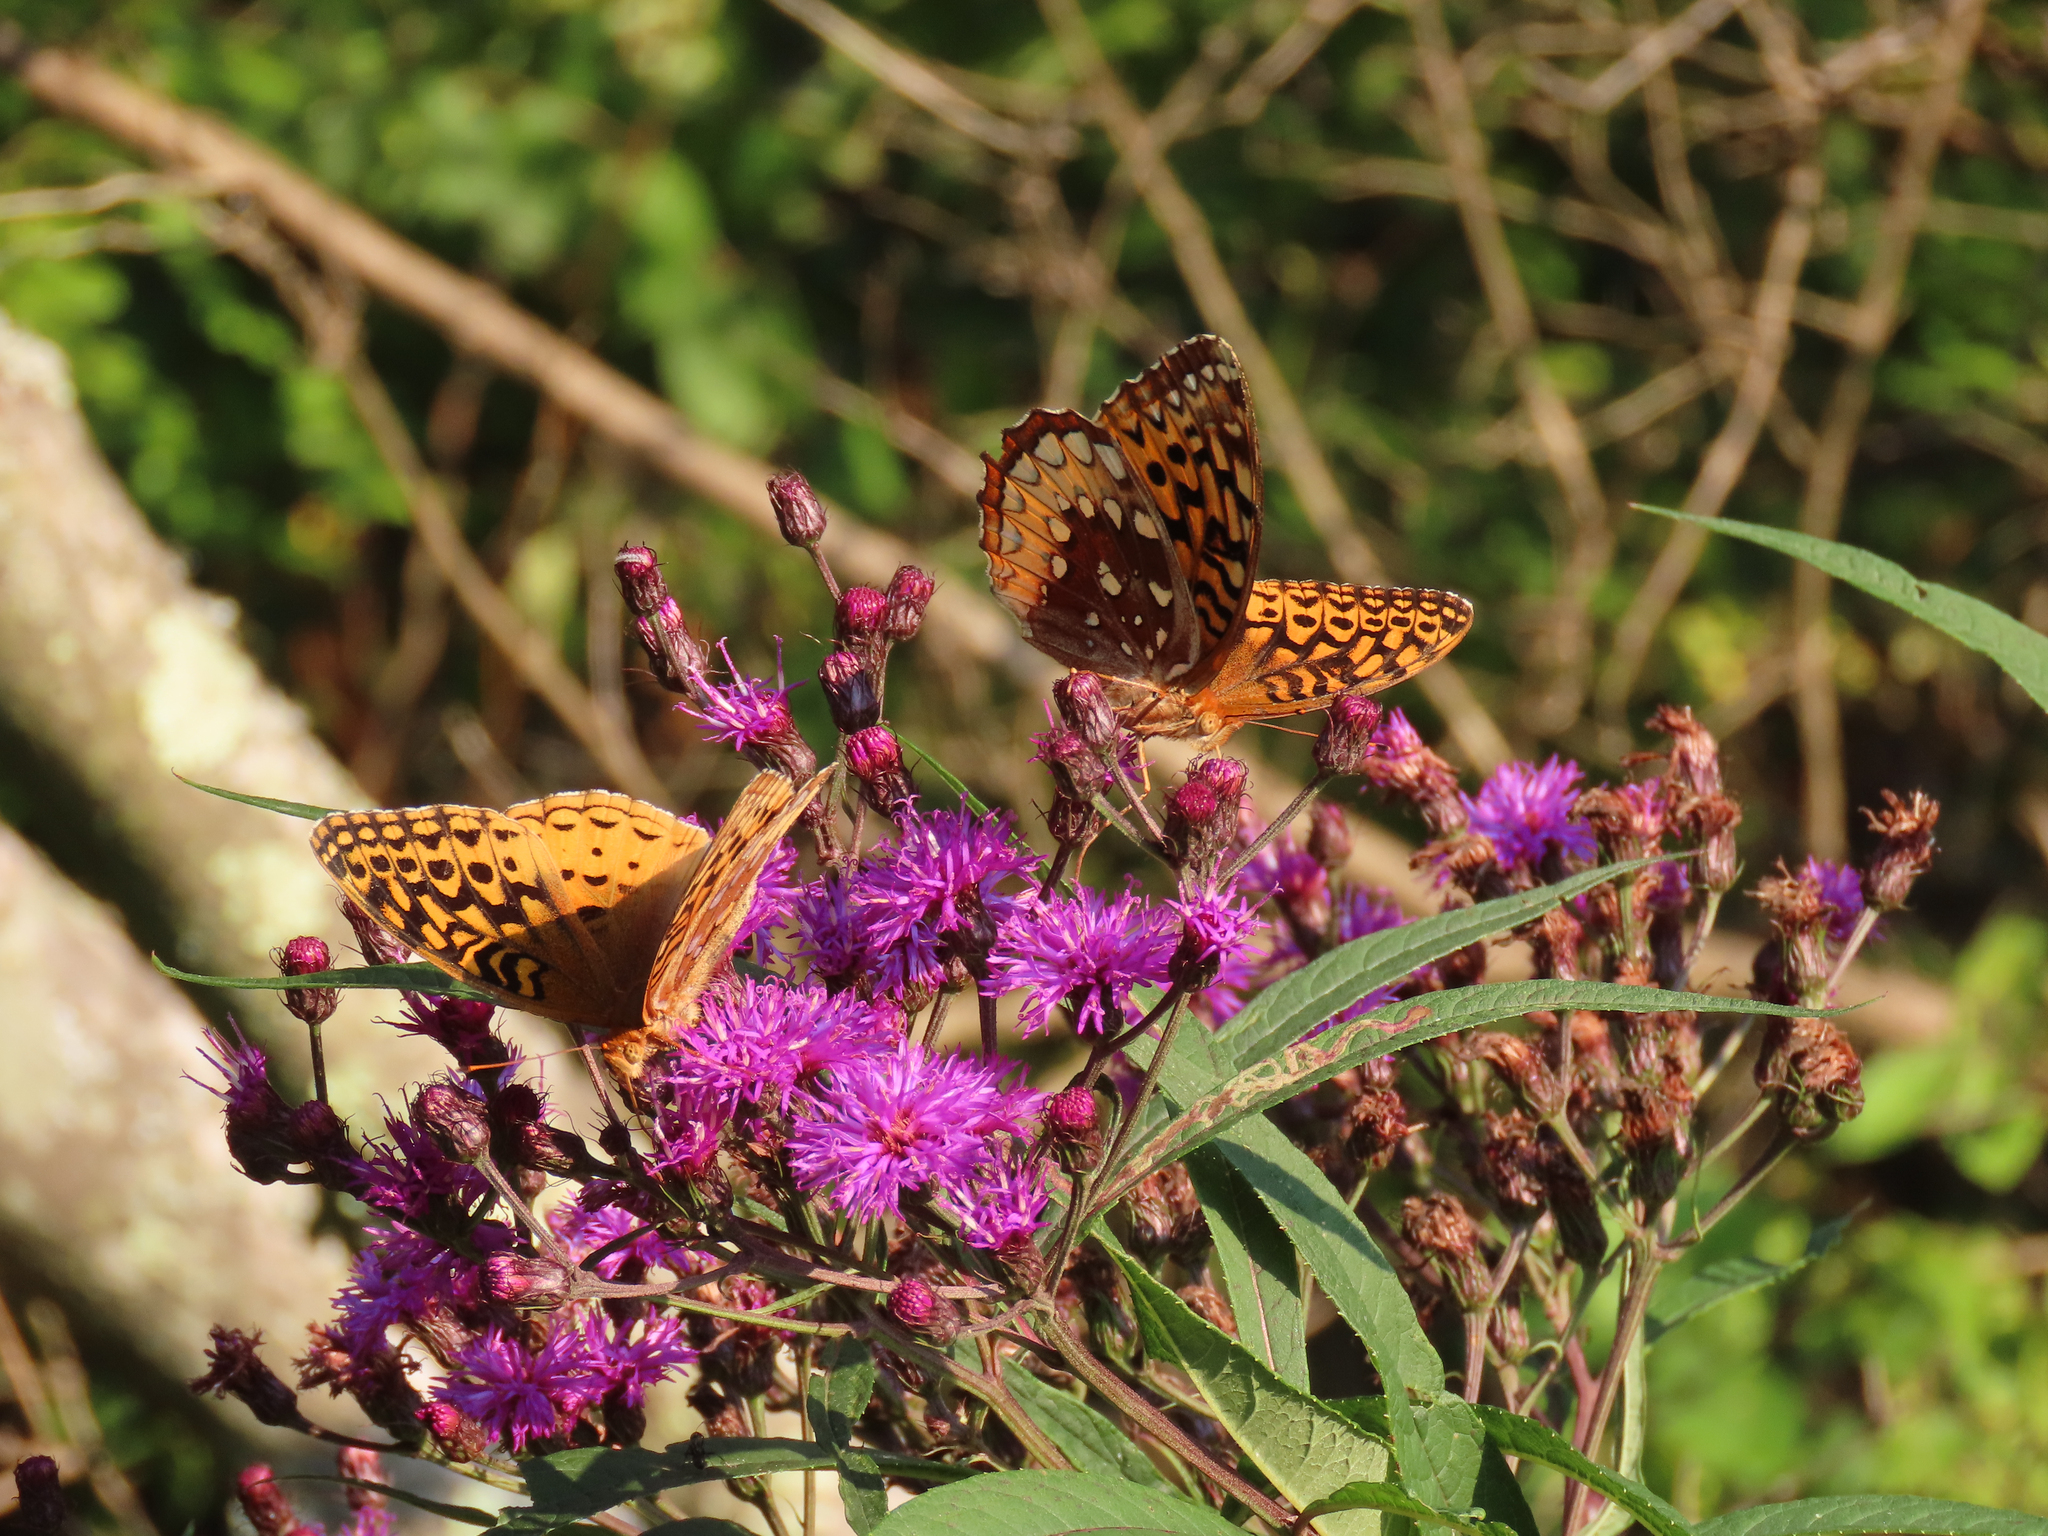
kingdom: Animalia
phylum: Arthropoda
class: Insecta
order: Lepidoptera
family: Nymphalidae
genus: Speyeria
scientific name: Speyeria cybele
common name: Great spangled fritillary
